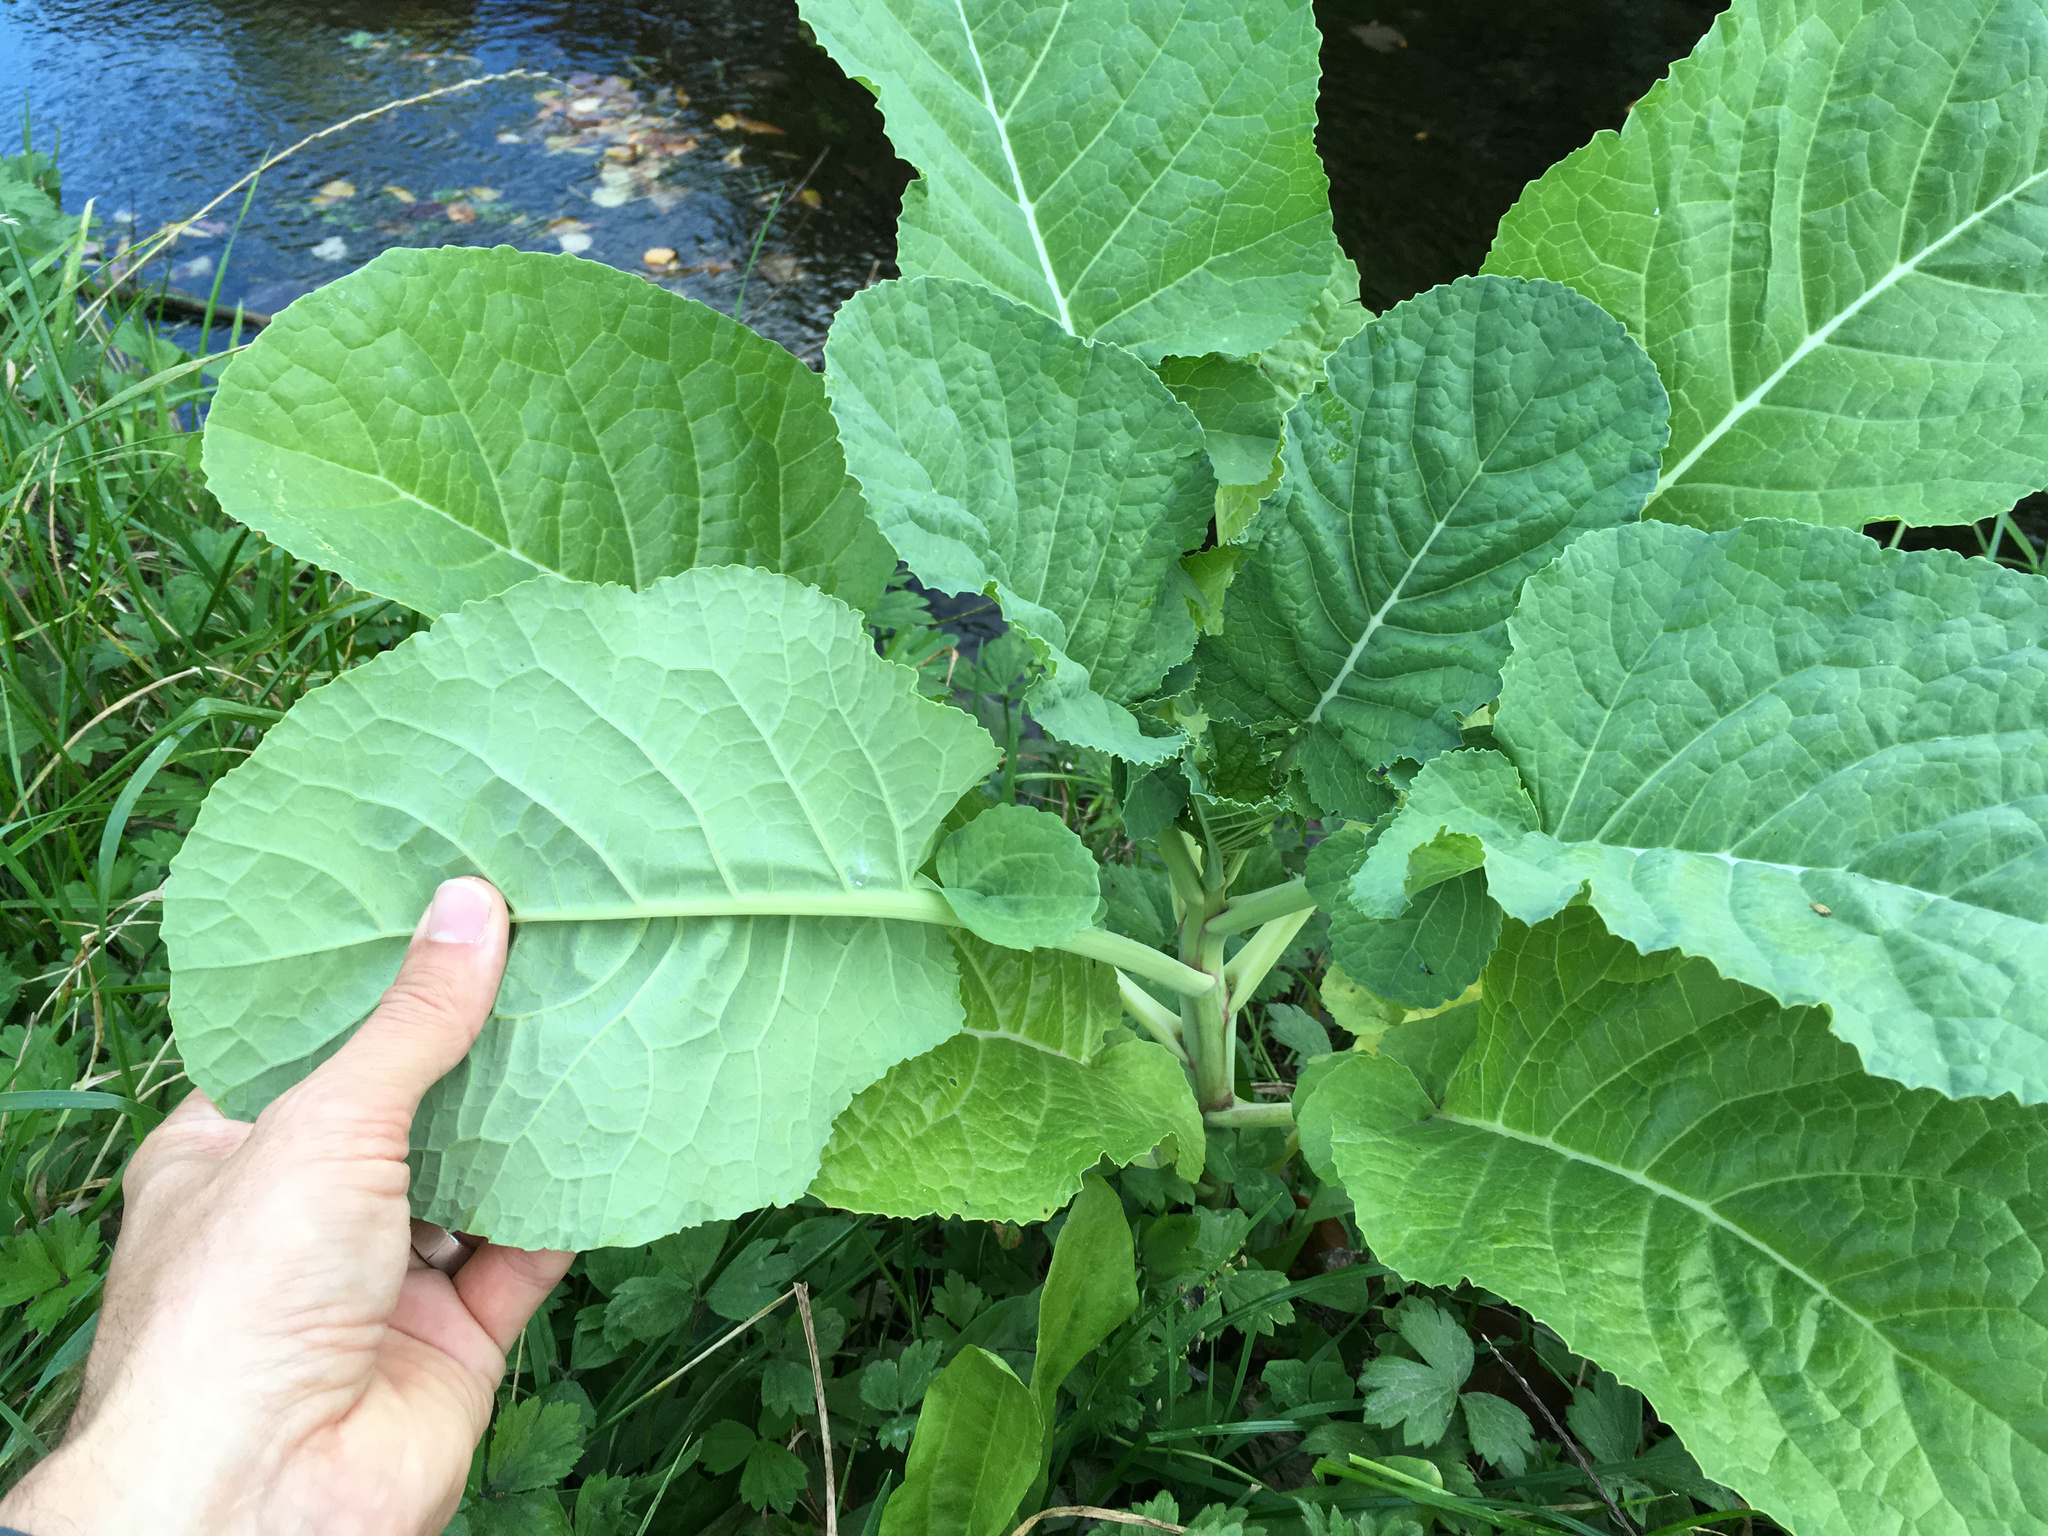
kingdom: Plantae
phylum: Tracheophyta
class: Magnoliopsida
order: Brassicales
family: Brassicaceae
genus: Brassica
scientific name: Brassica oleracea
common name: Cabbage
